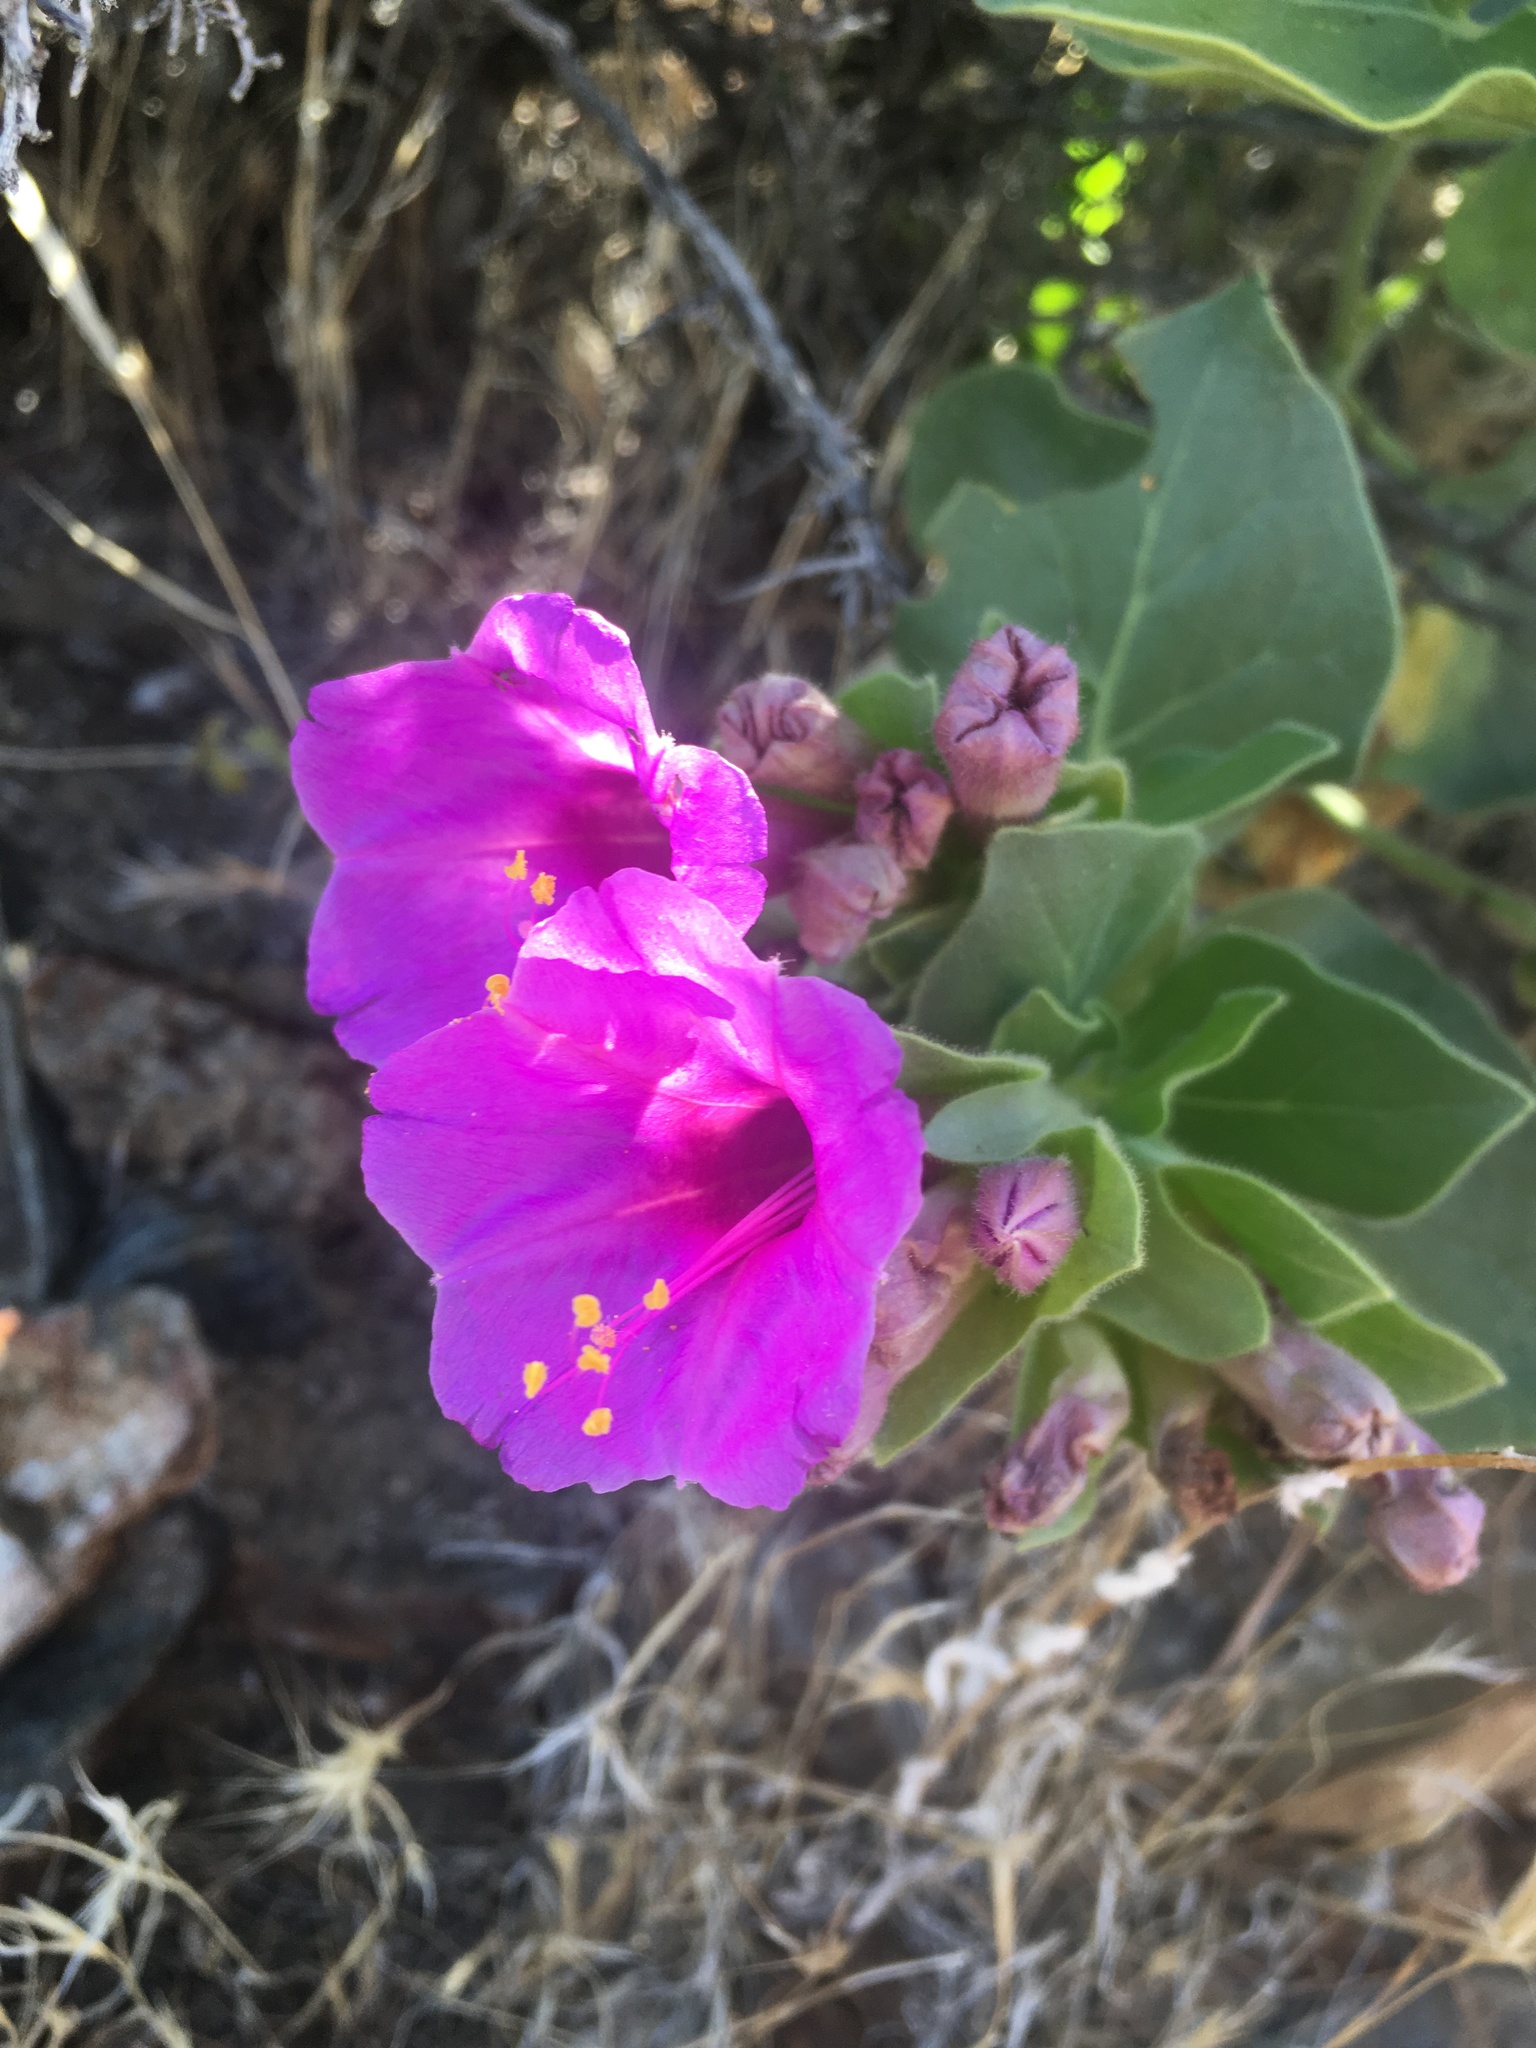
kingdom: Plantae
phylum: Tracheophyta
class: Magnoliopsida
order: Caryophyllales
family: Nyctaginaceae
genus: Mirabilis
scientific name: Mirabilis multiflora
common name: Froebel's four-o'clock
